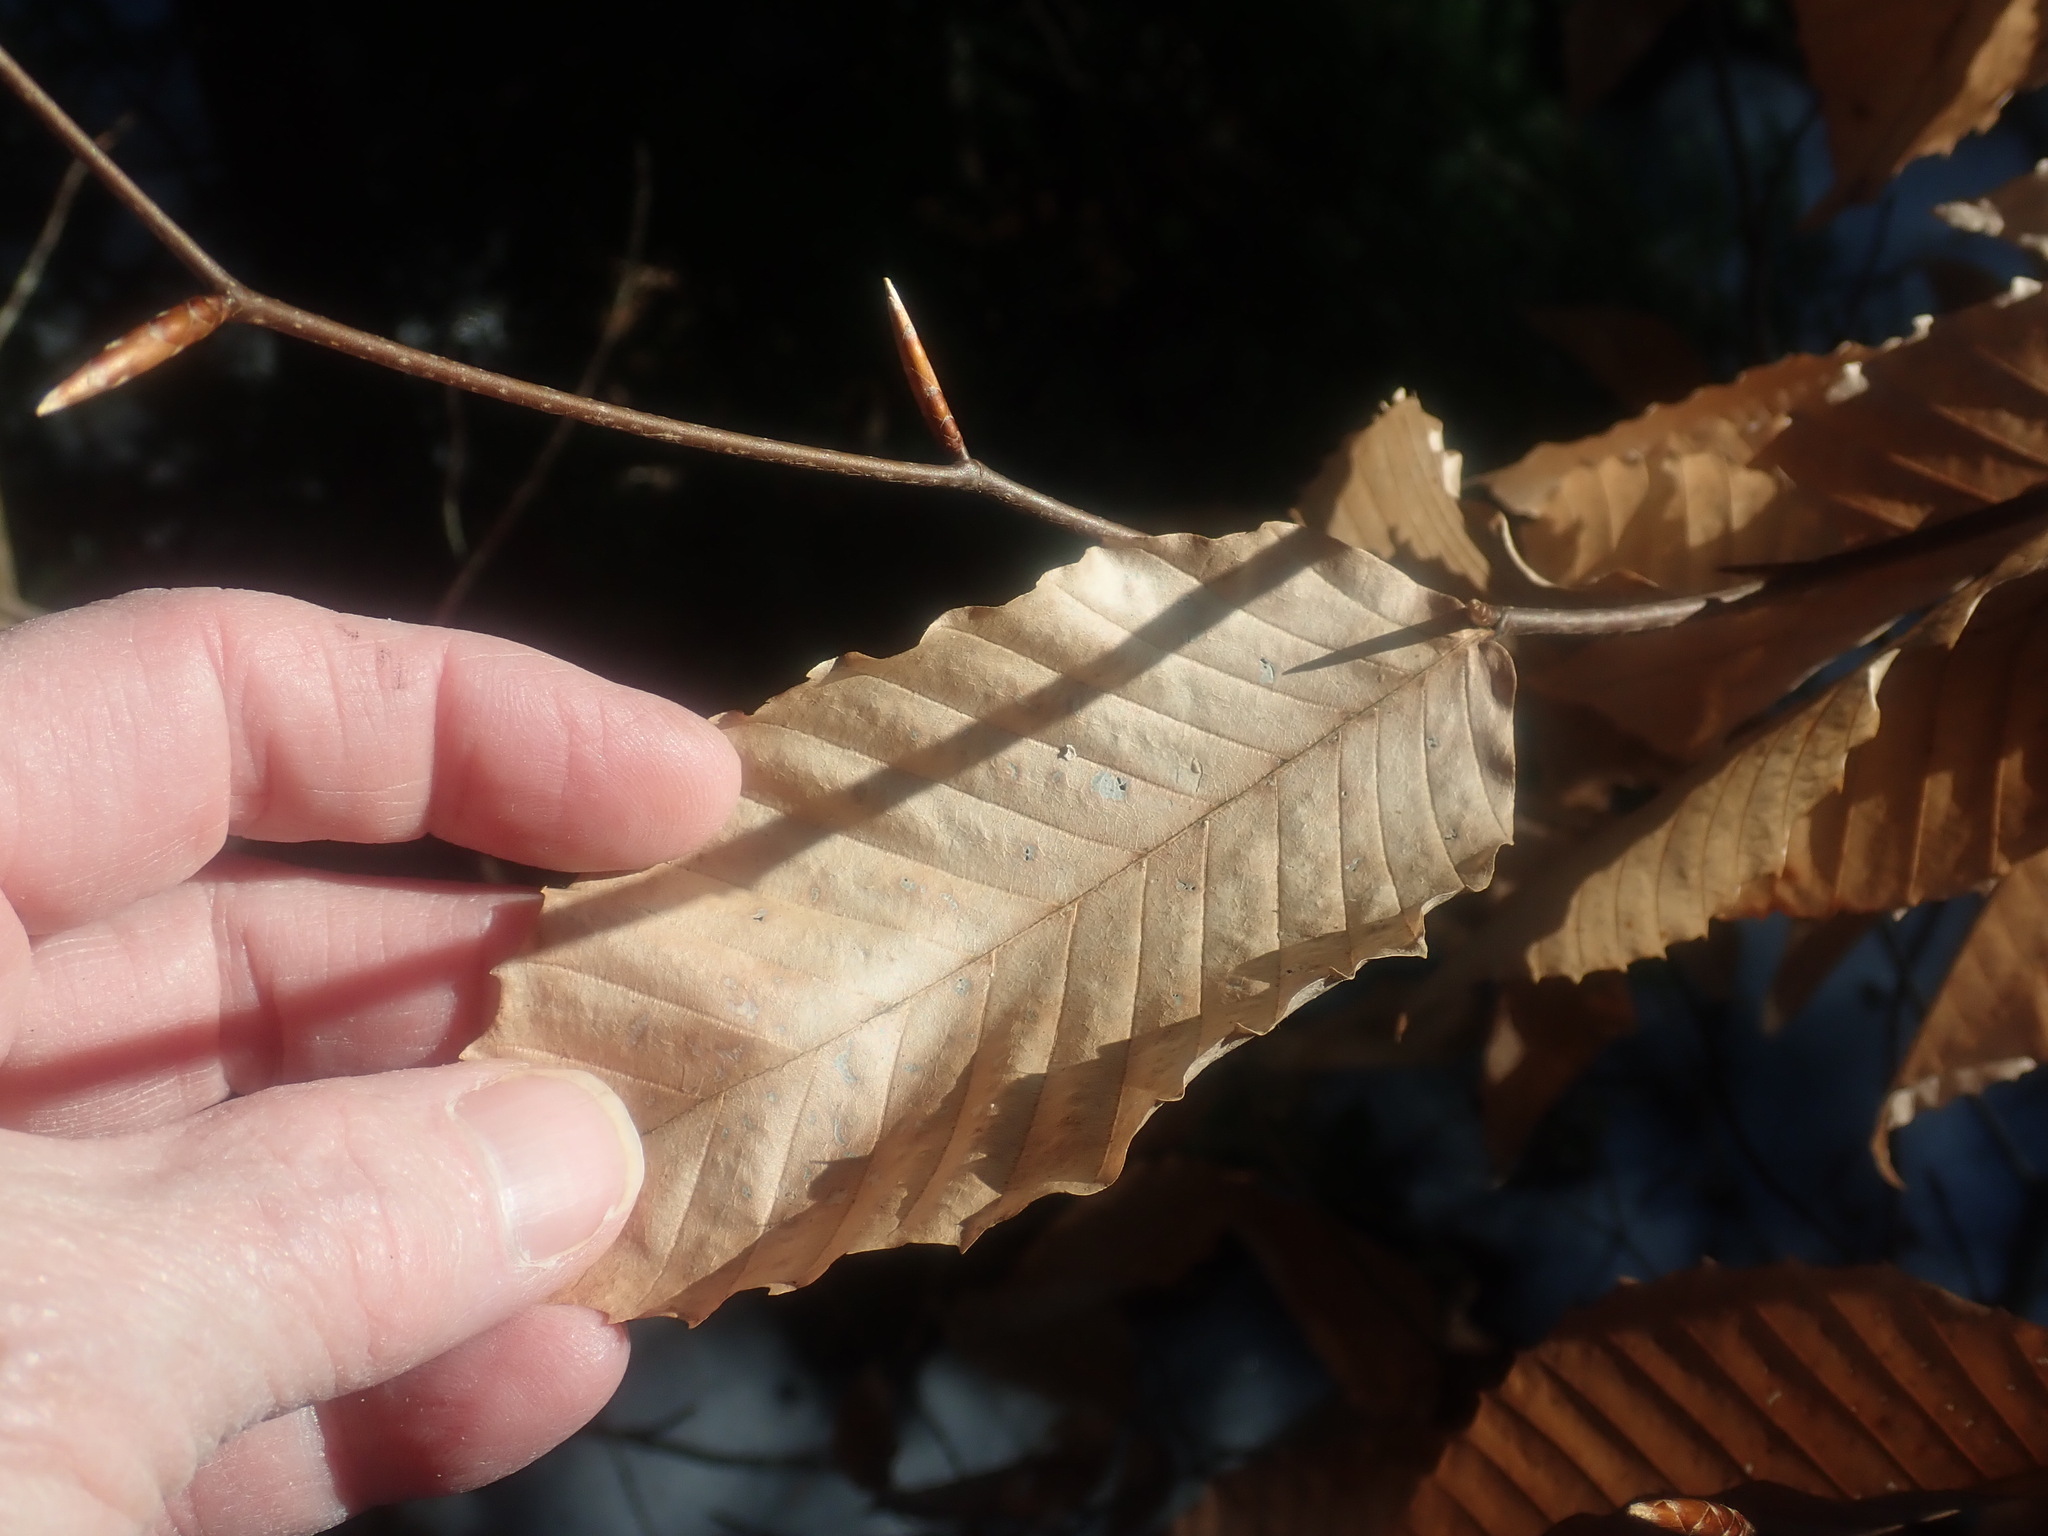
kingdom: Plantae
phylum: Tracheophyta
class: Magnoliopsida
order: Fagales
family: Fagaceae
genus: Fagus
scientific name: Fagus grandifolia
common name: American beech
